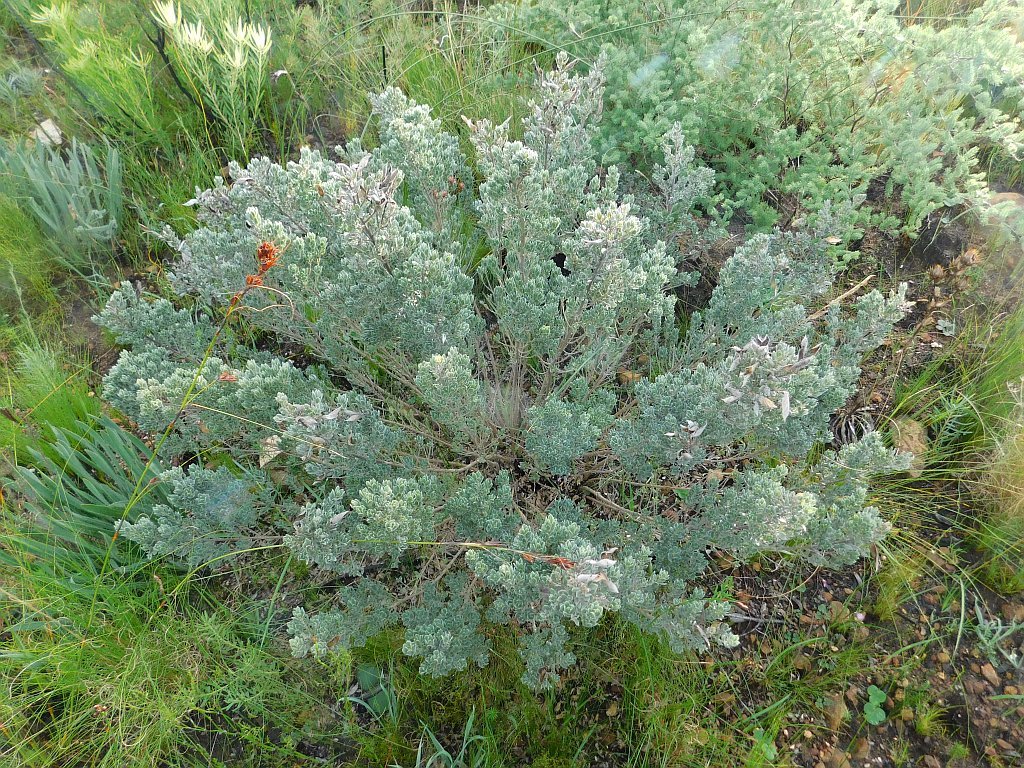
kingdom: Plantae
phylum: Tracheophyta
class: Magnoliopsida
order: Fabales
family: Fabaceae
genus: Xiphotheca
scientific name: Xiphotheca elliptica
